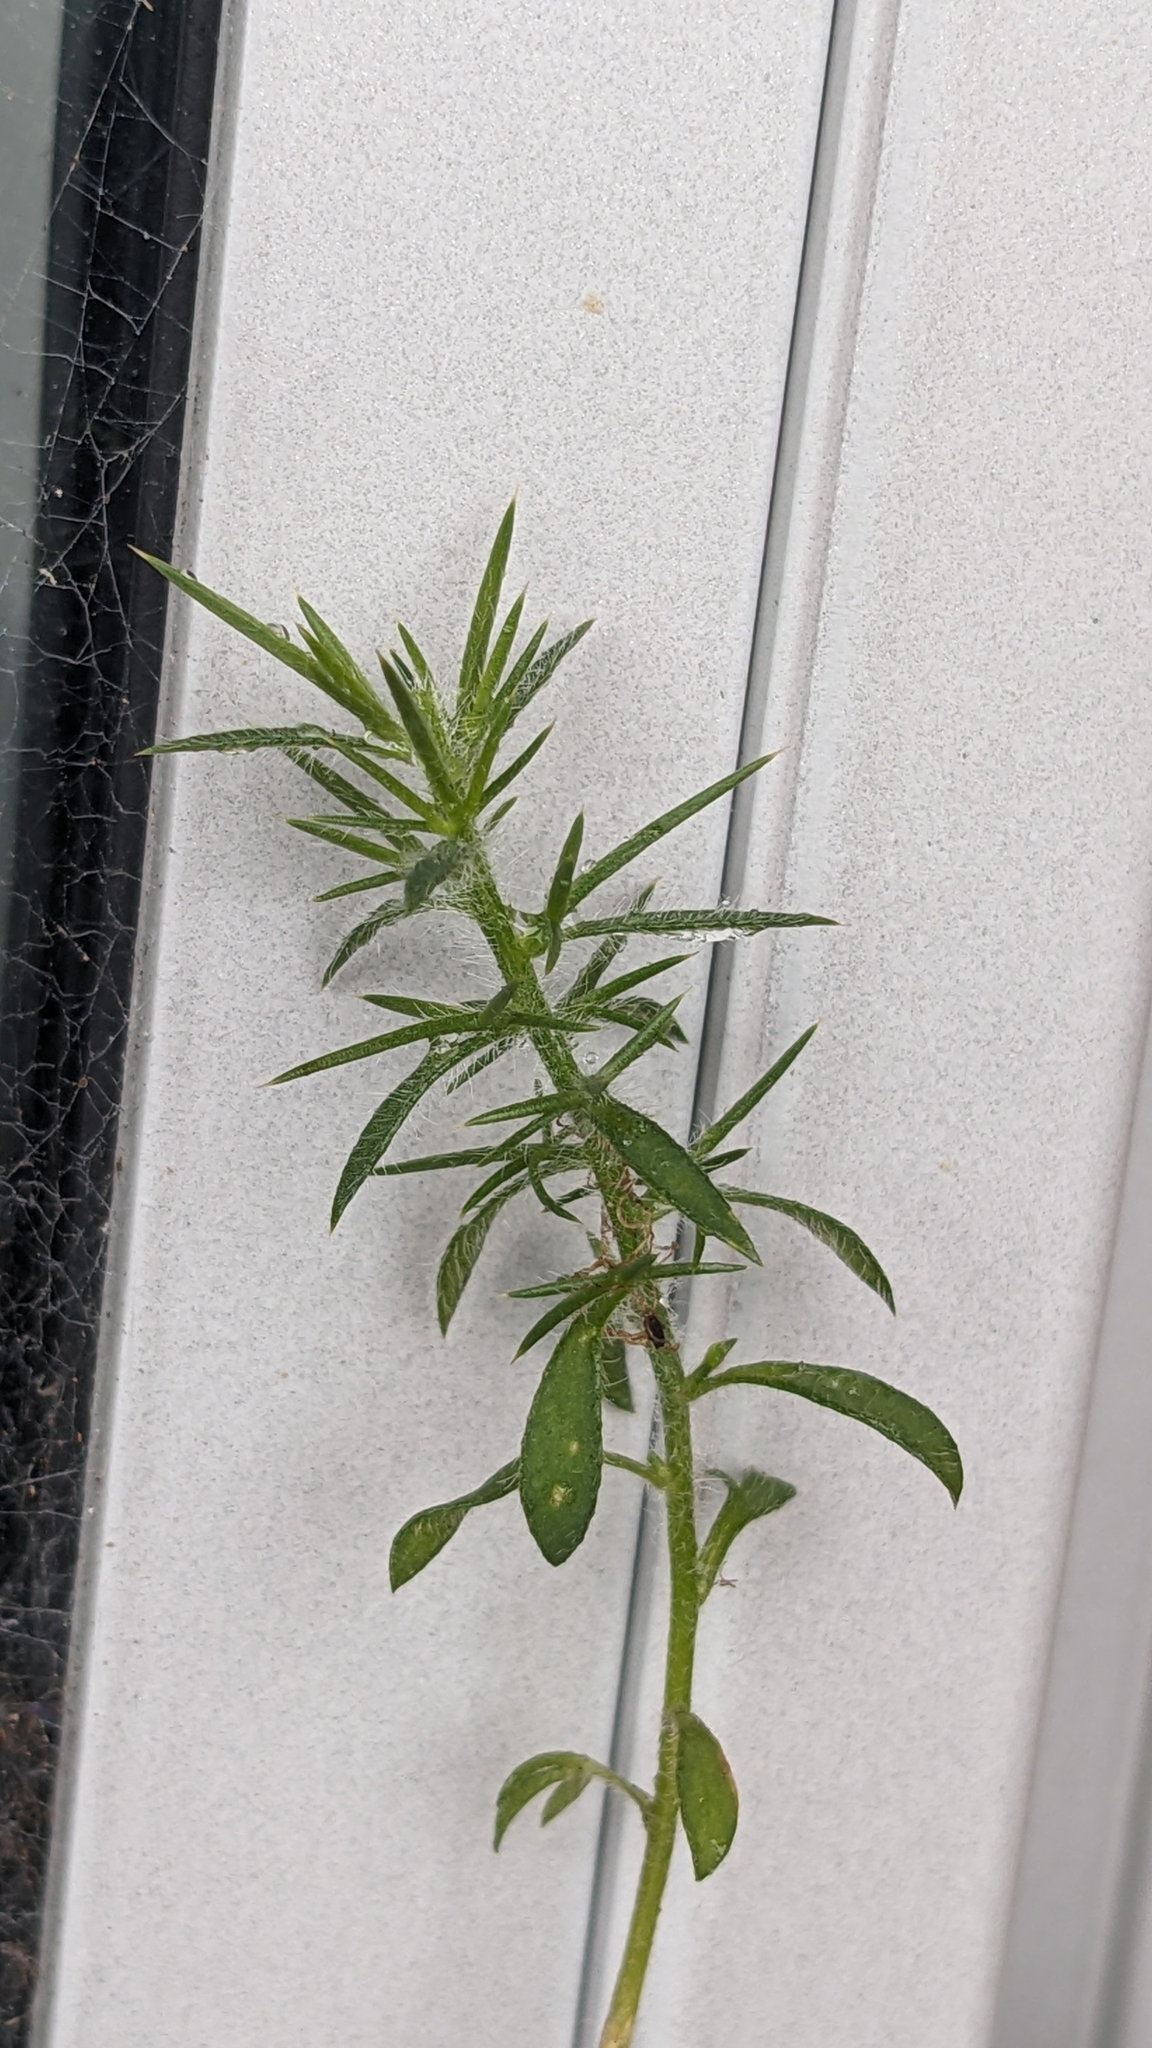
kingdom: Plantae
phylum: Tracheophyta
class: Magnoliopsida
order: Fabales
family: Fabaceae
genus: Ulex
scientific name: Ulex europaeus
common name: Common gorse
